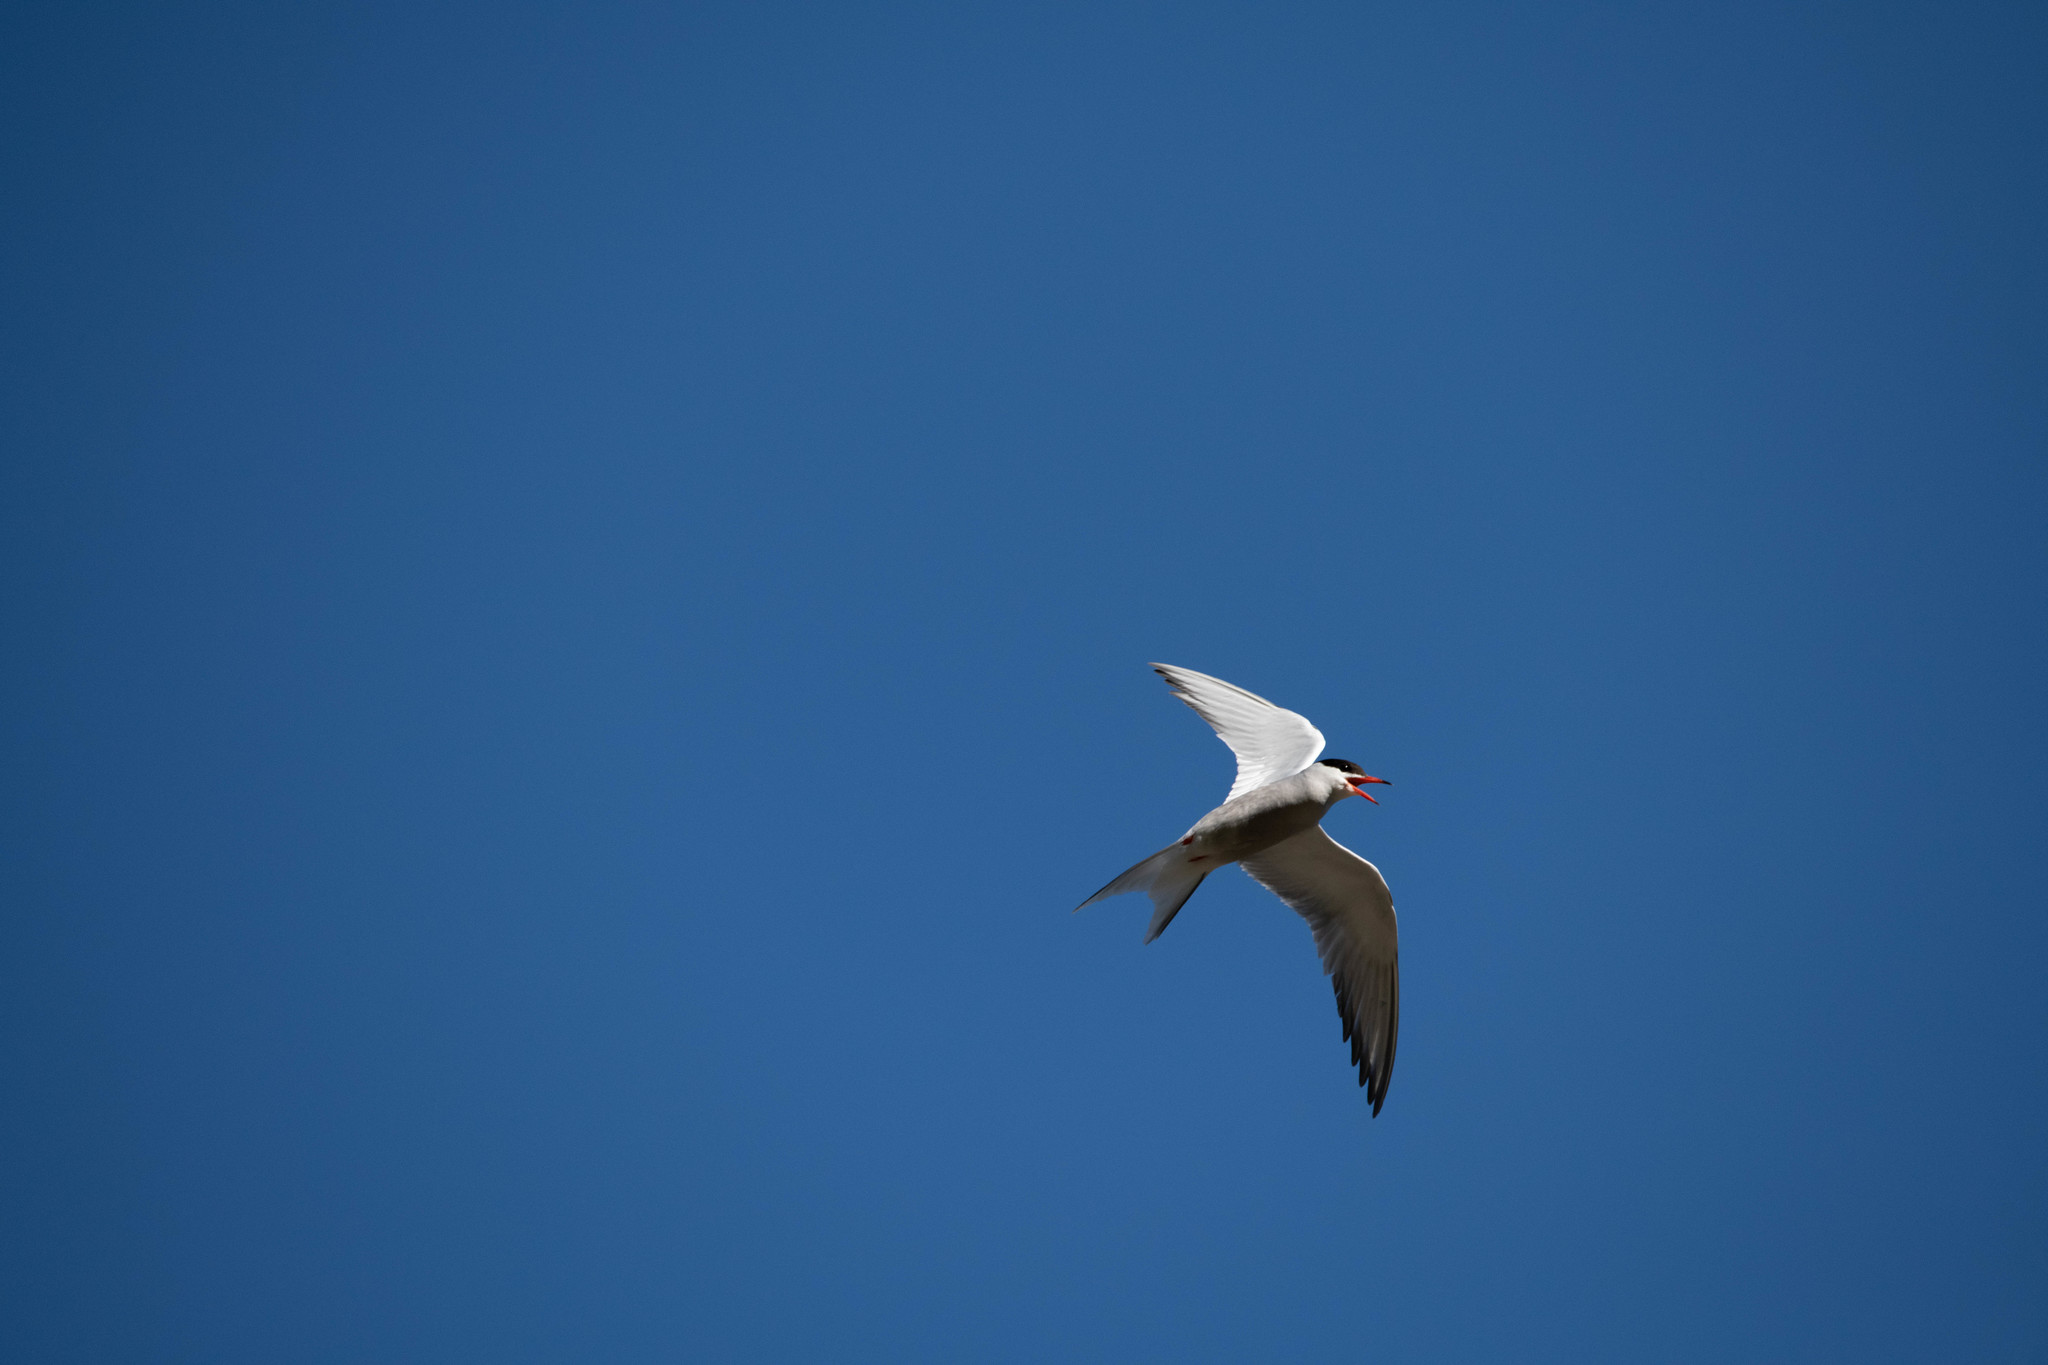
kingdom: Animalia
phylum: Chordata
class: Aves
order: Charadriiformes
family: Laridae
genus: Sterna
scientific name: Sterna hirundo
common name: Common tern
